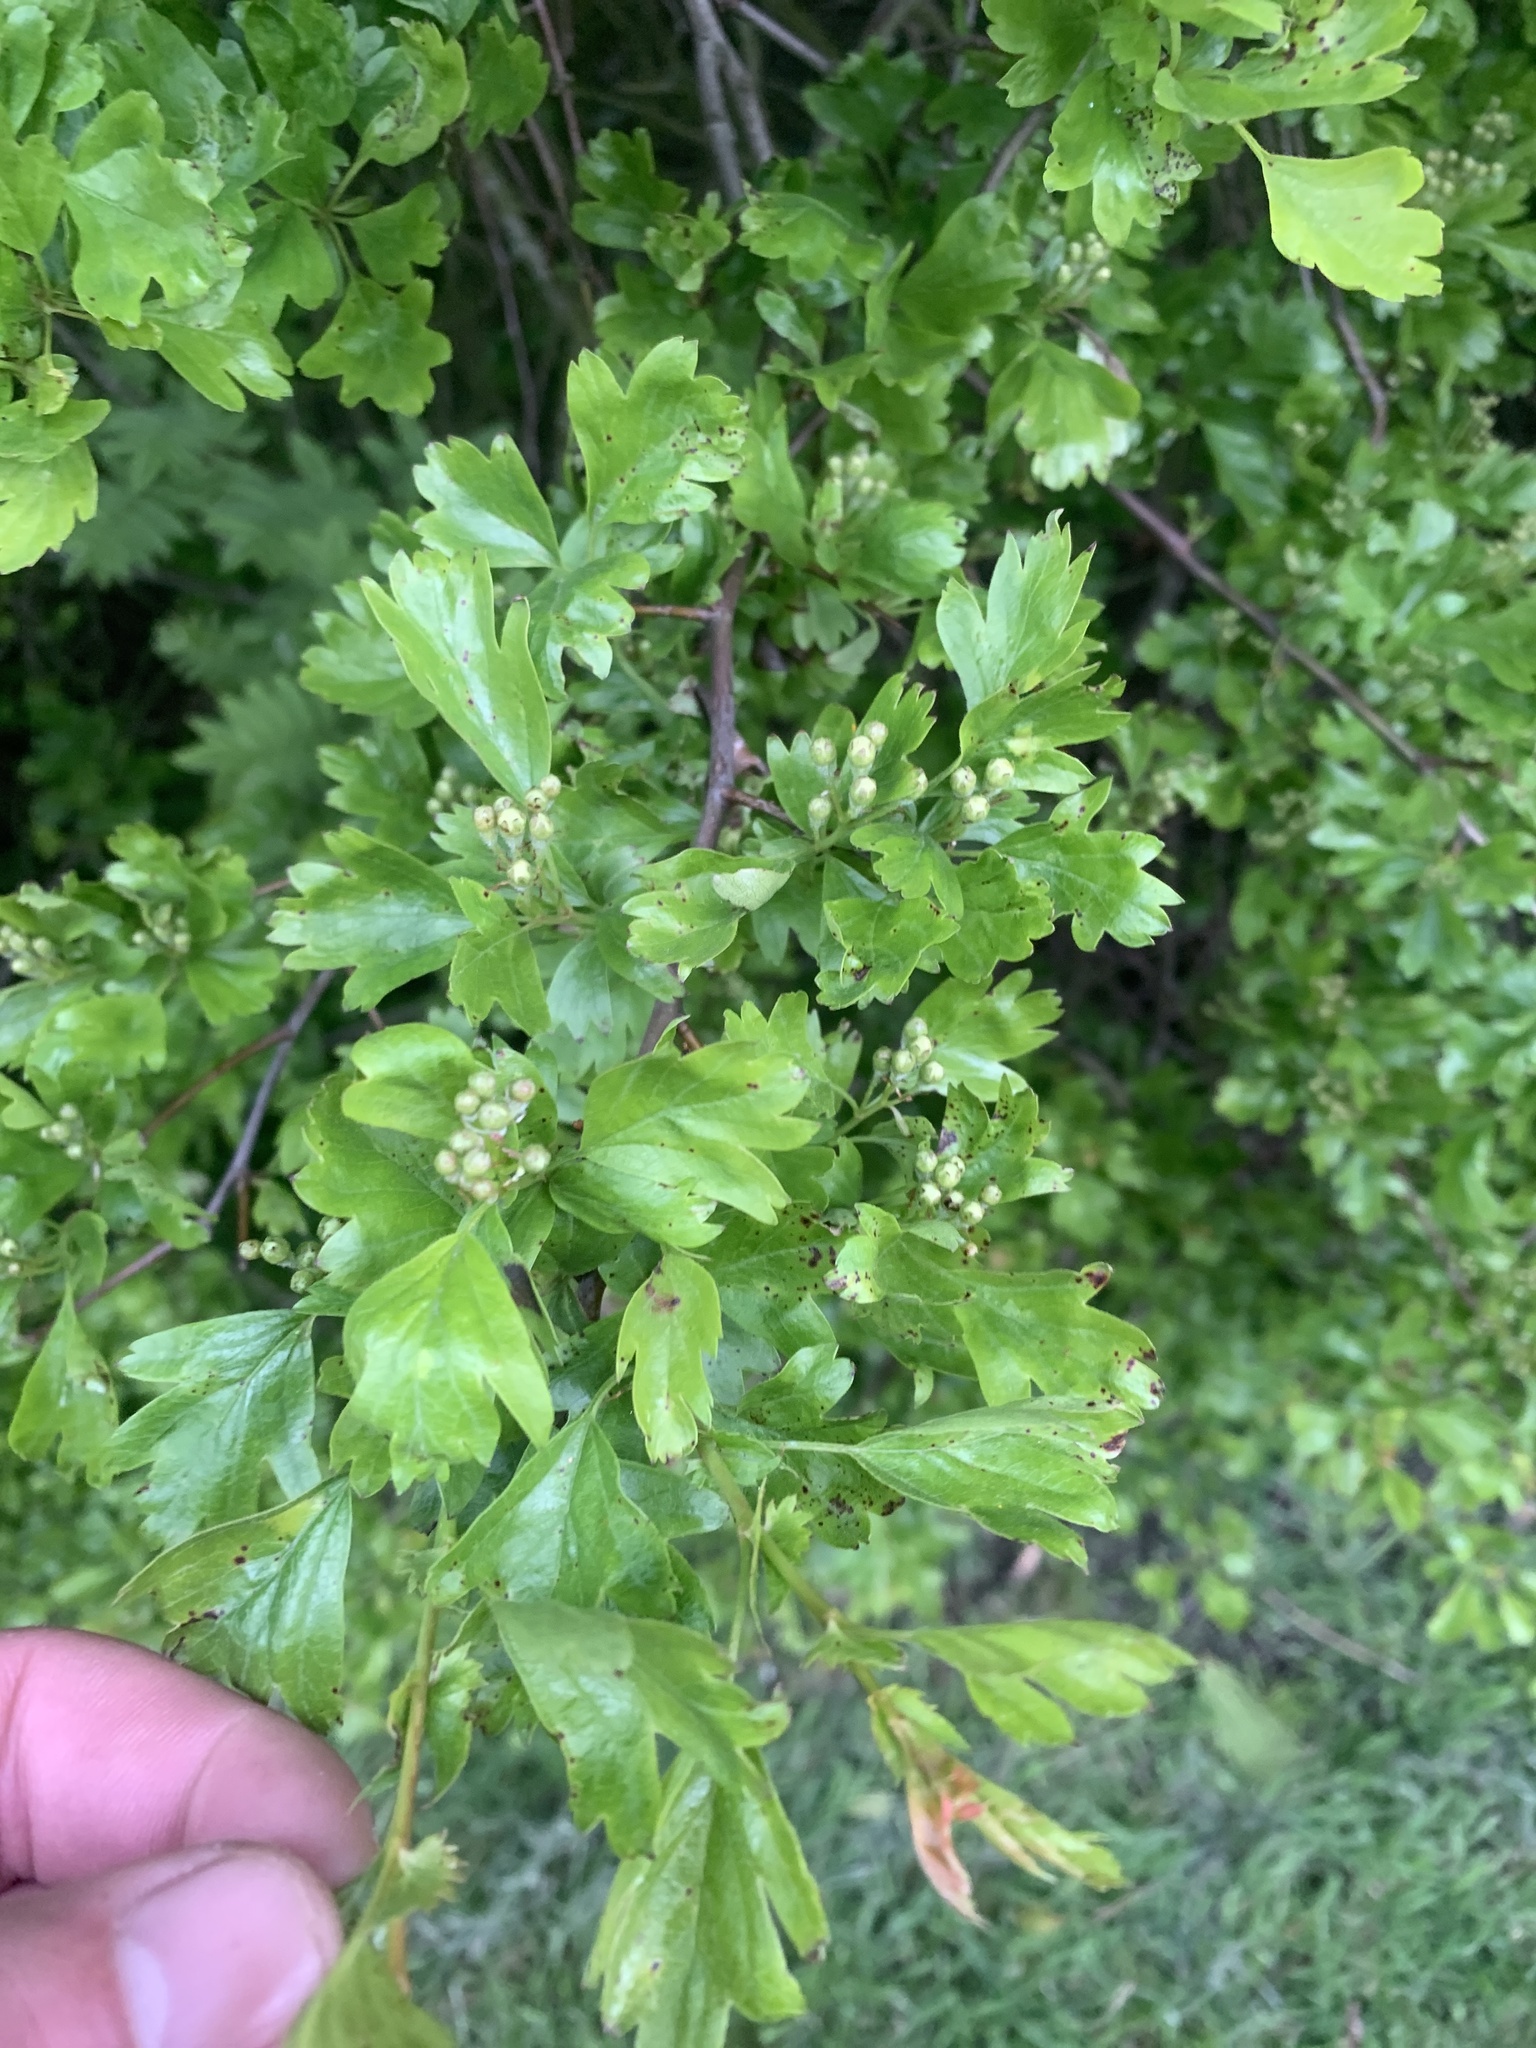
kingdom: Plantae
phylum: Tracheophyta
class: Magnoliopsida
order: Rosales
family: Rosaceae
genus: Crataegus
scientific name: Crataegus monogyna
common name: Hawthorn
